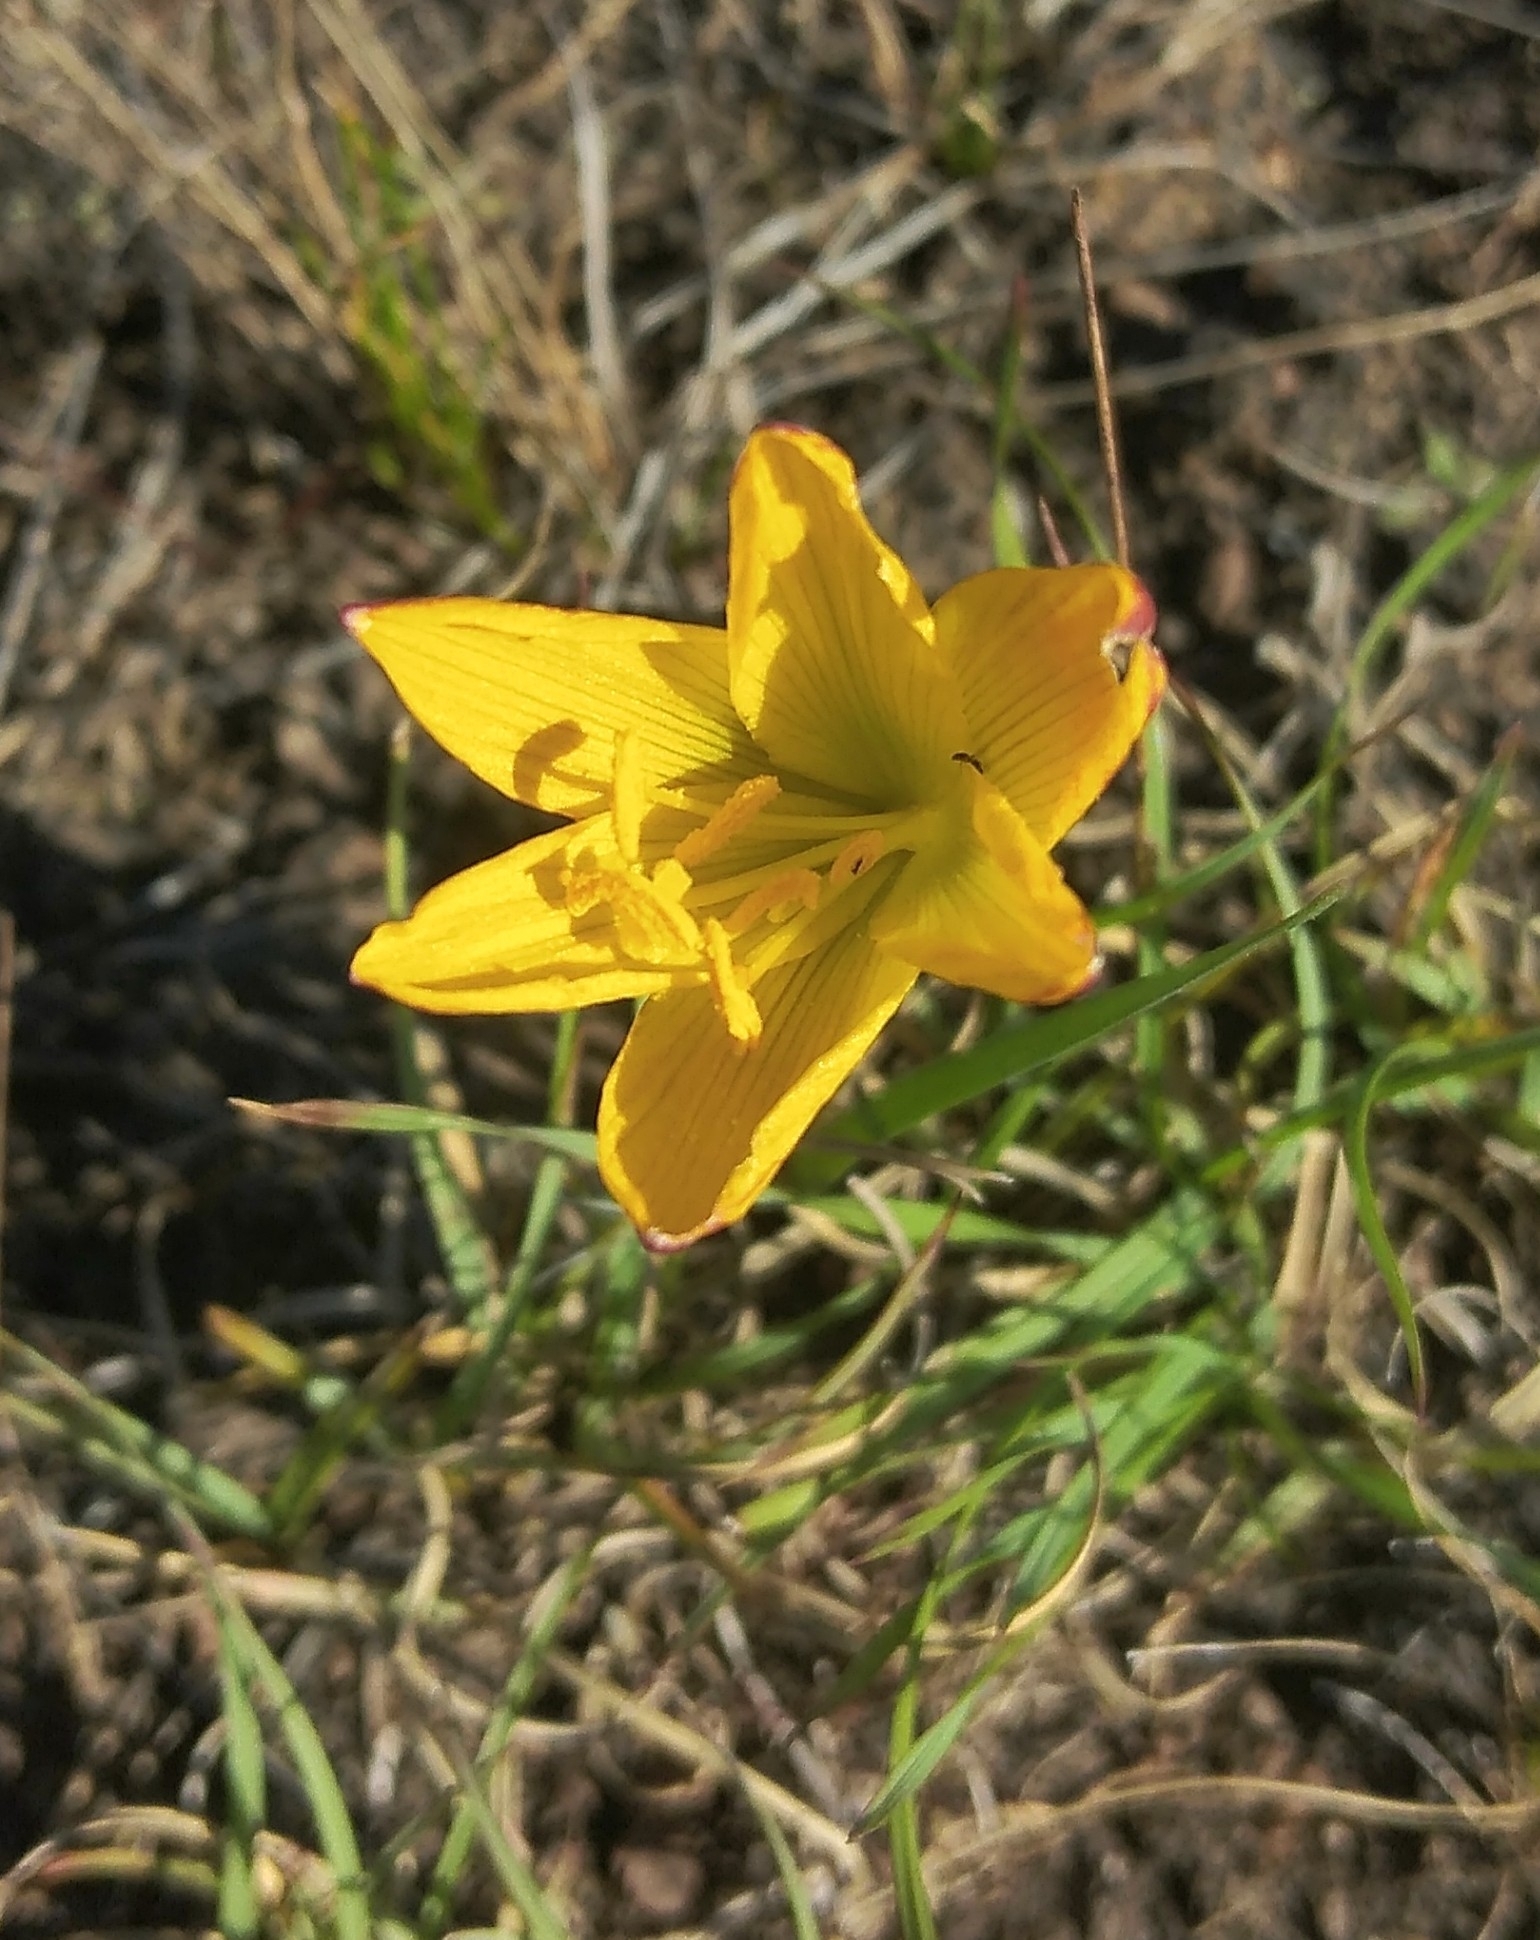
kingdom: Plantae
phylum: Tracheophyta
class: Liliopsida
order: Asparagales
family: Amaryllidaceae
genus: Zephyranthes
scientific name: Zephyranthes tubispatha
